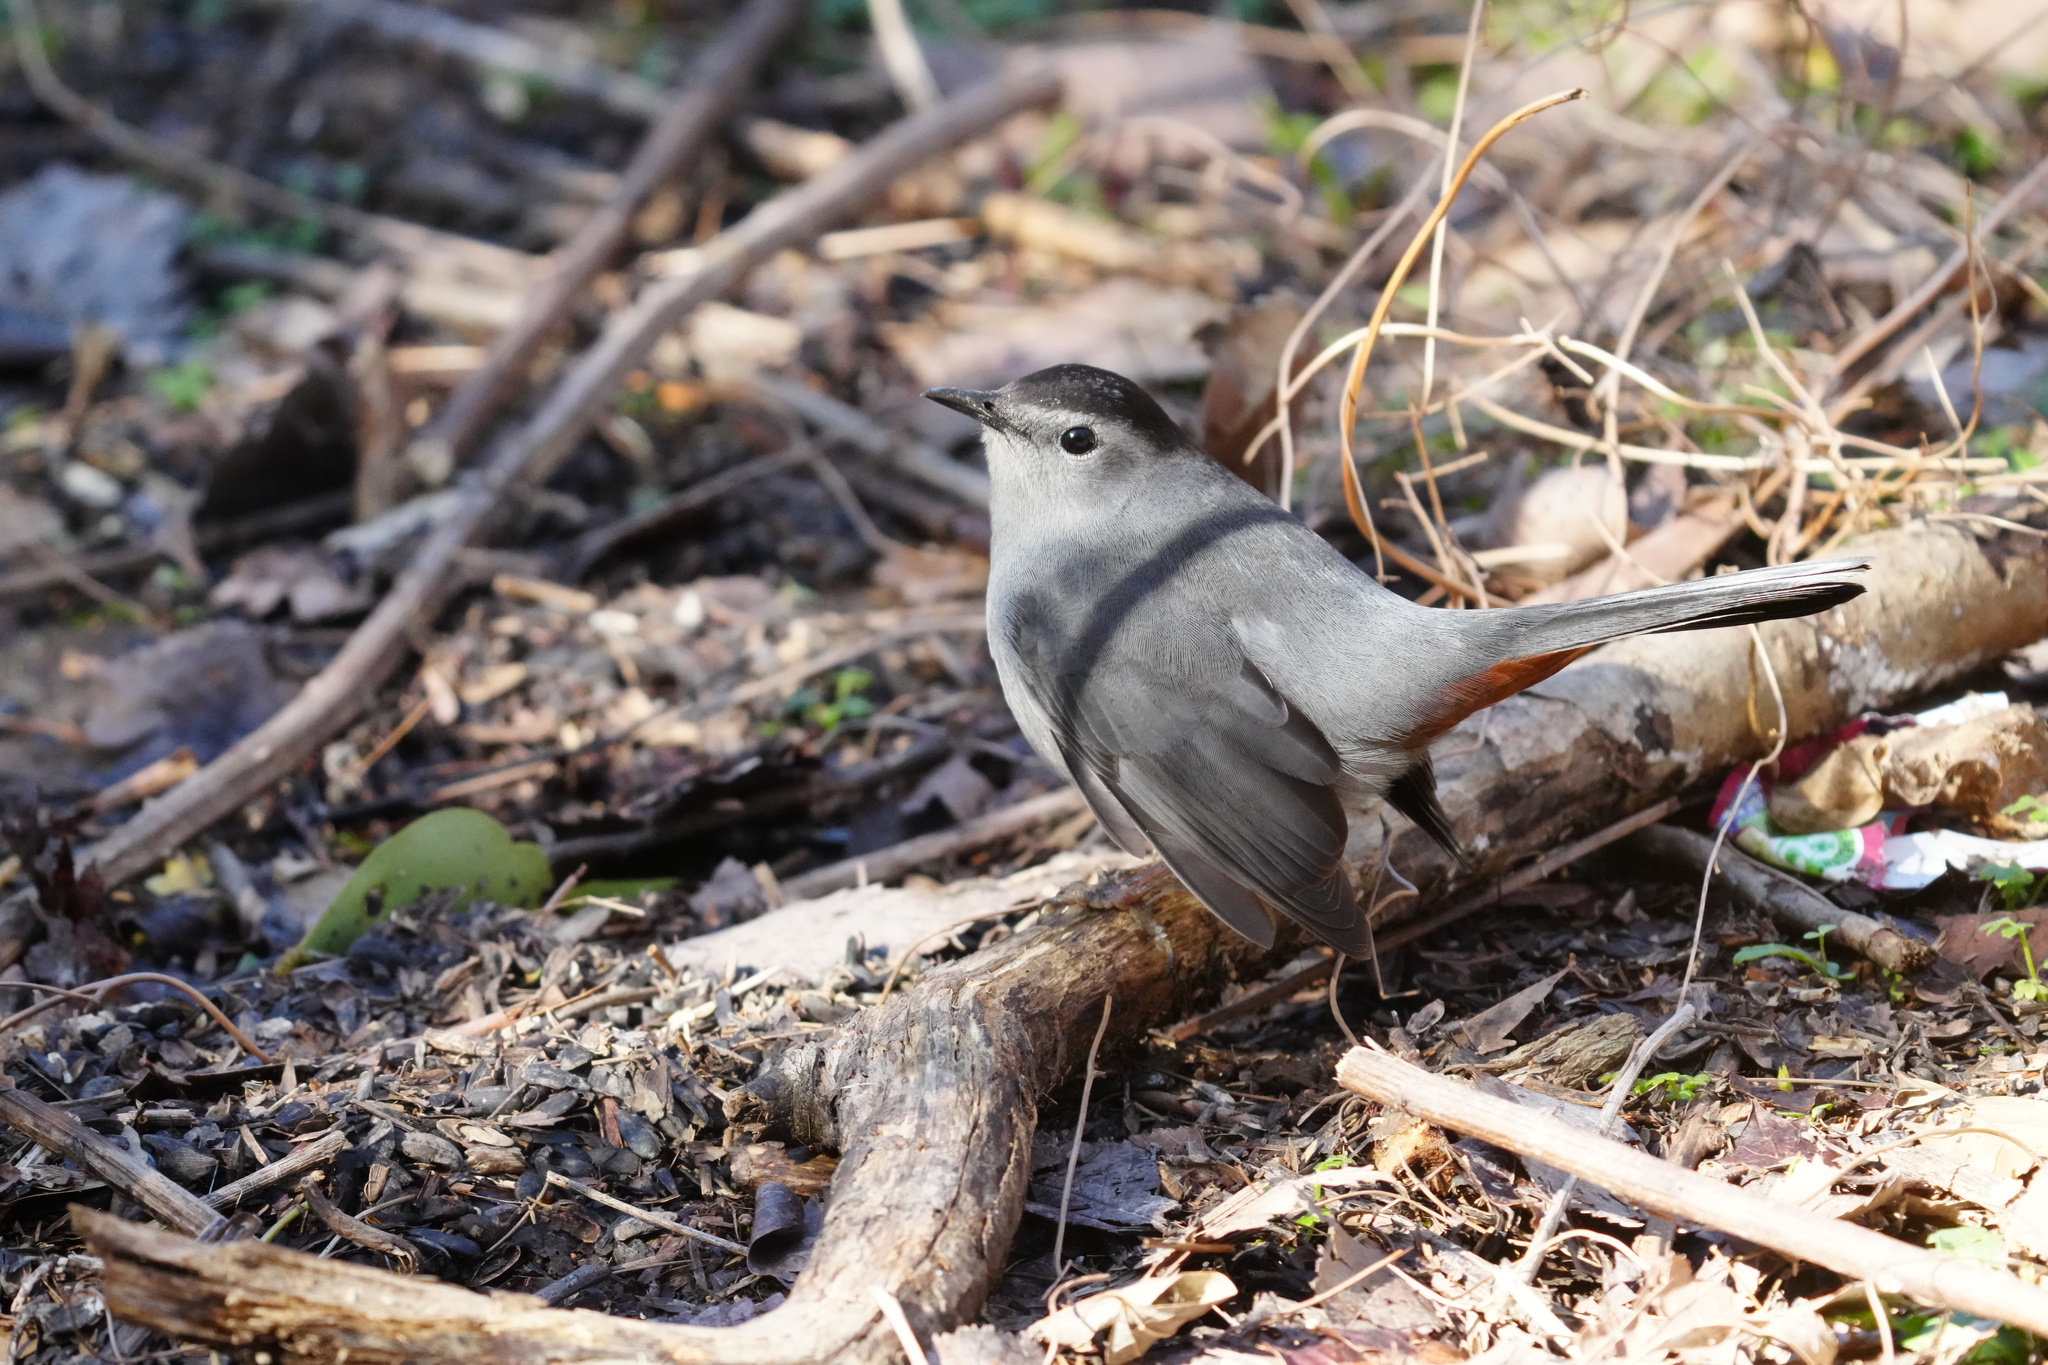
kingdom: Animalia
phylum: Chordata
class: Aves
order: Passeriformes
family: Mimidae
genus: Dumetella
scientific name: Dumetella carolinensis
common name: Gray catbird
